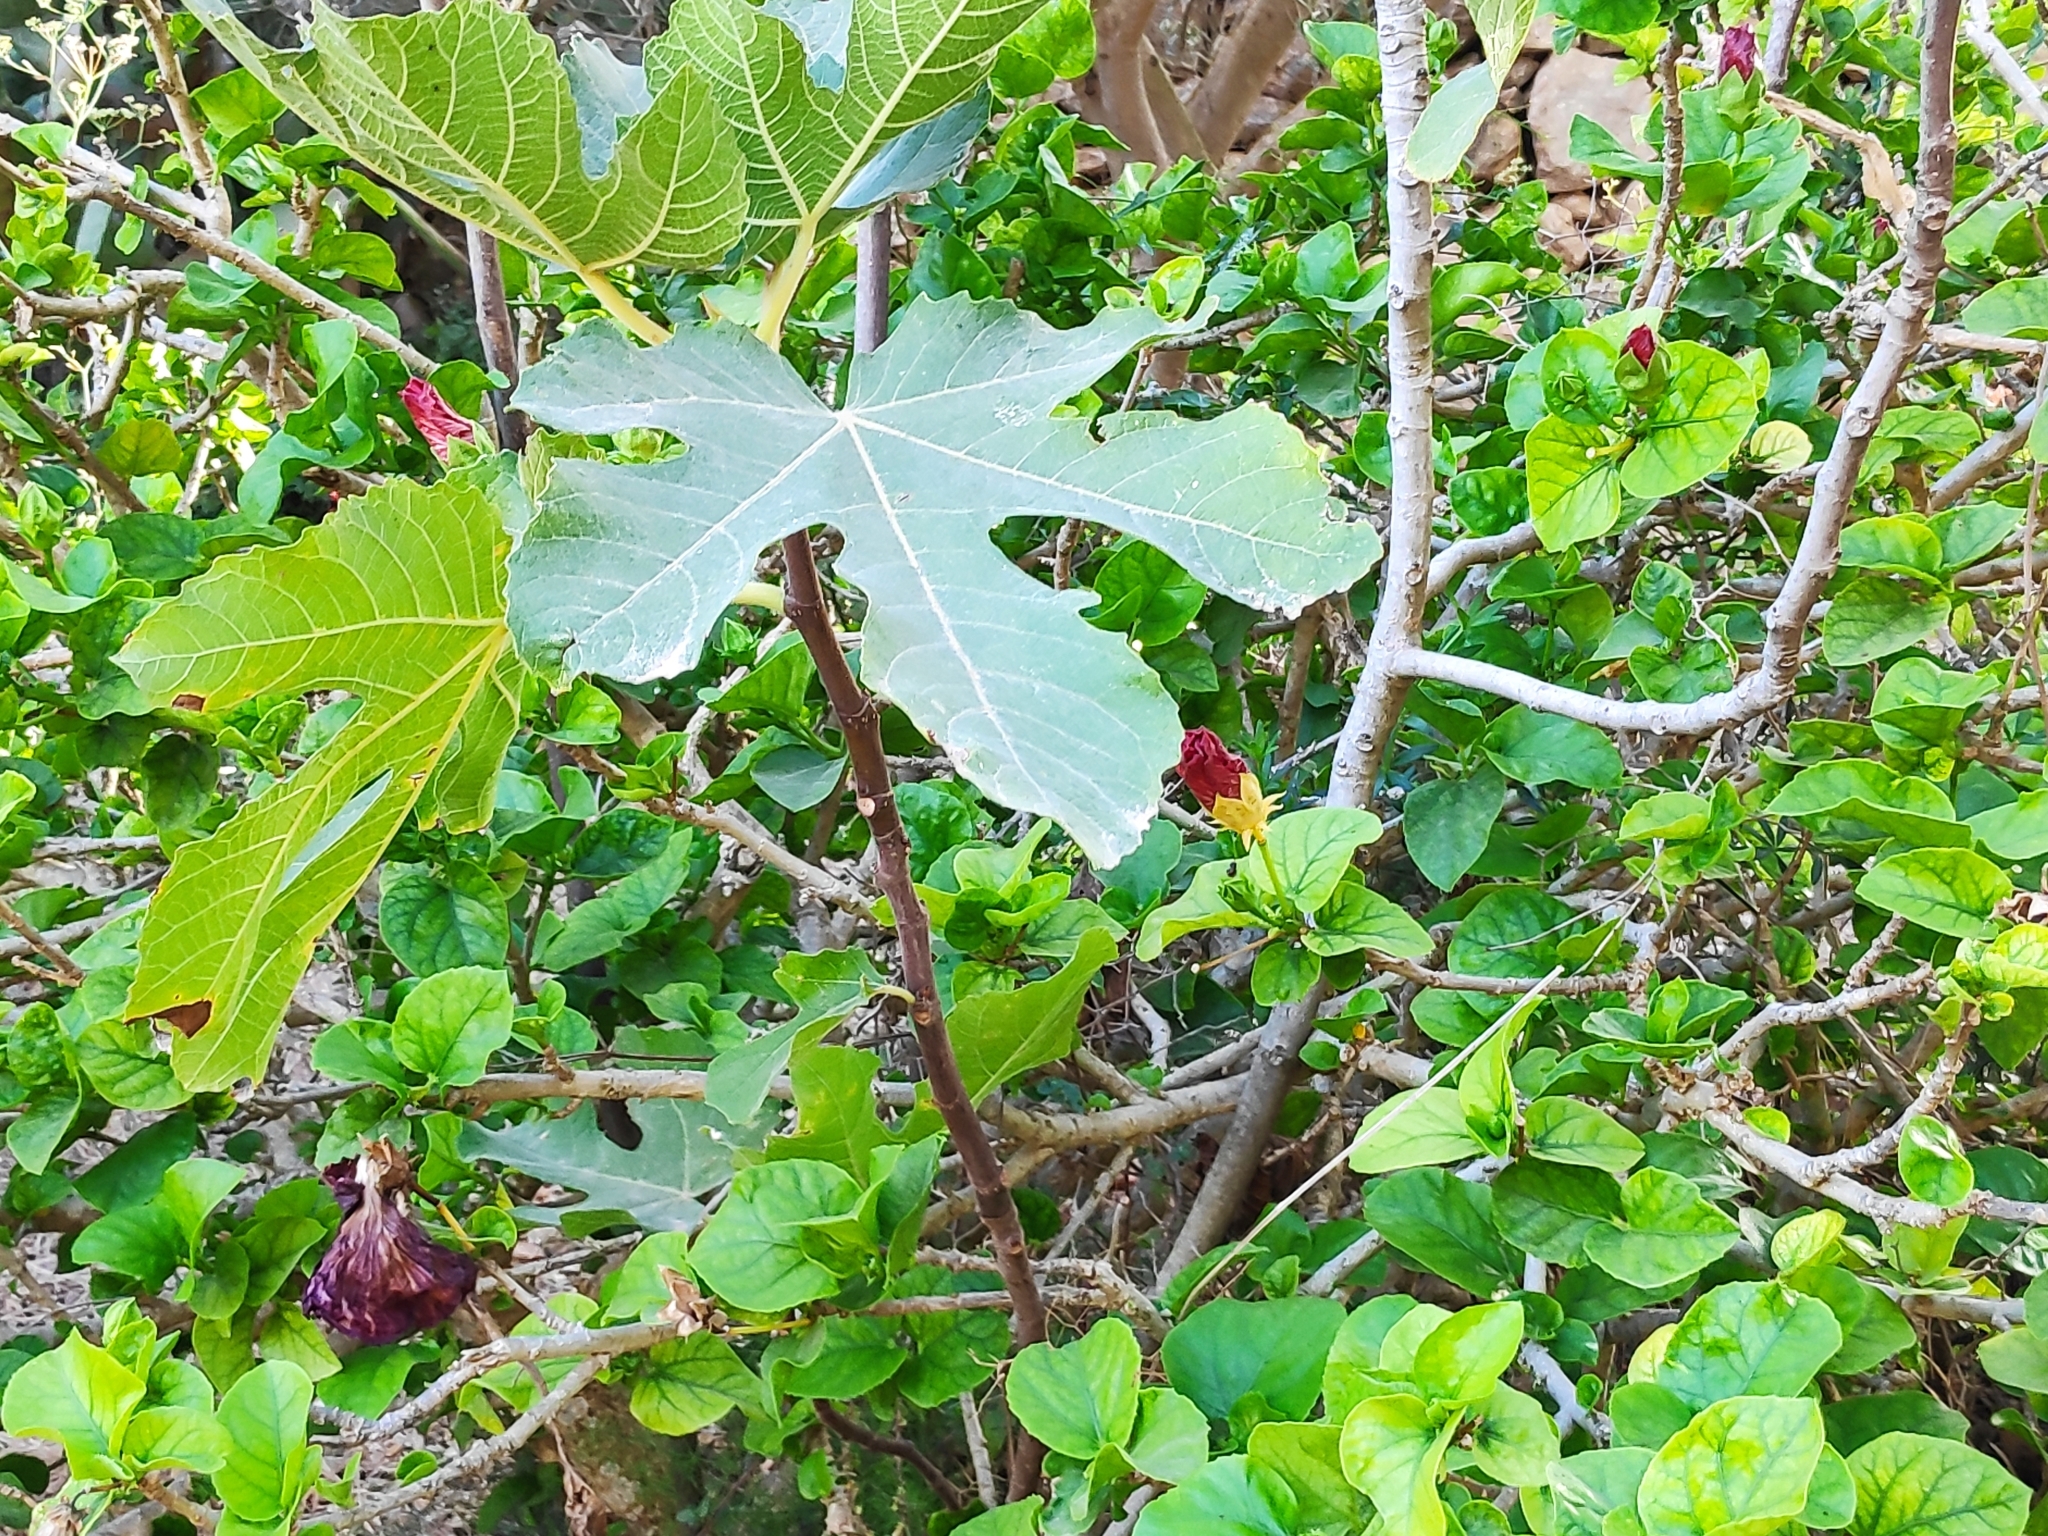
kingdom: Plantae
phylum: Tracheophyta
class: Magnoliopsida
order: Rosales
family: Moraceae
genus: Ficus
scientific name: Ficus carica
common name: Fig
